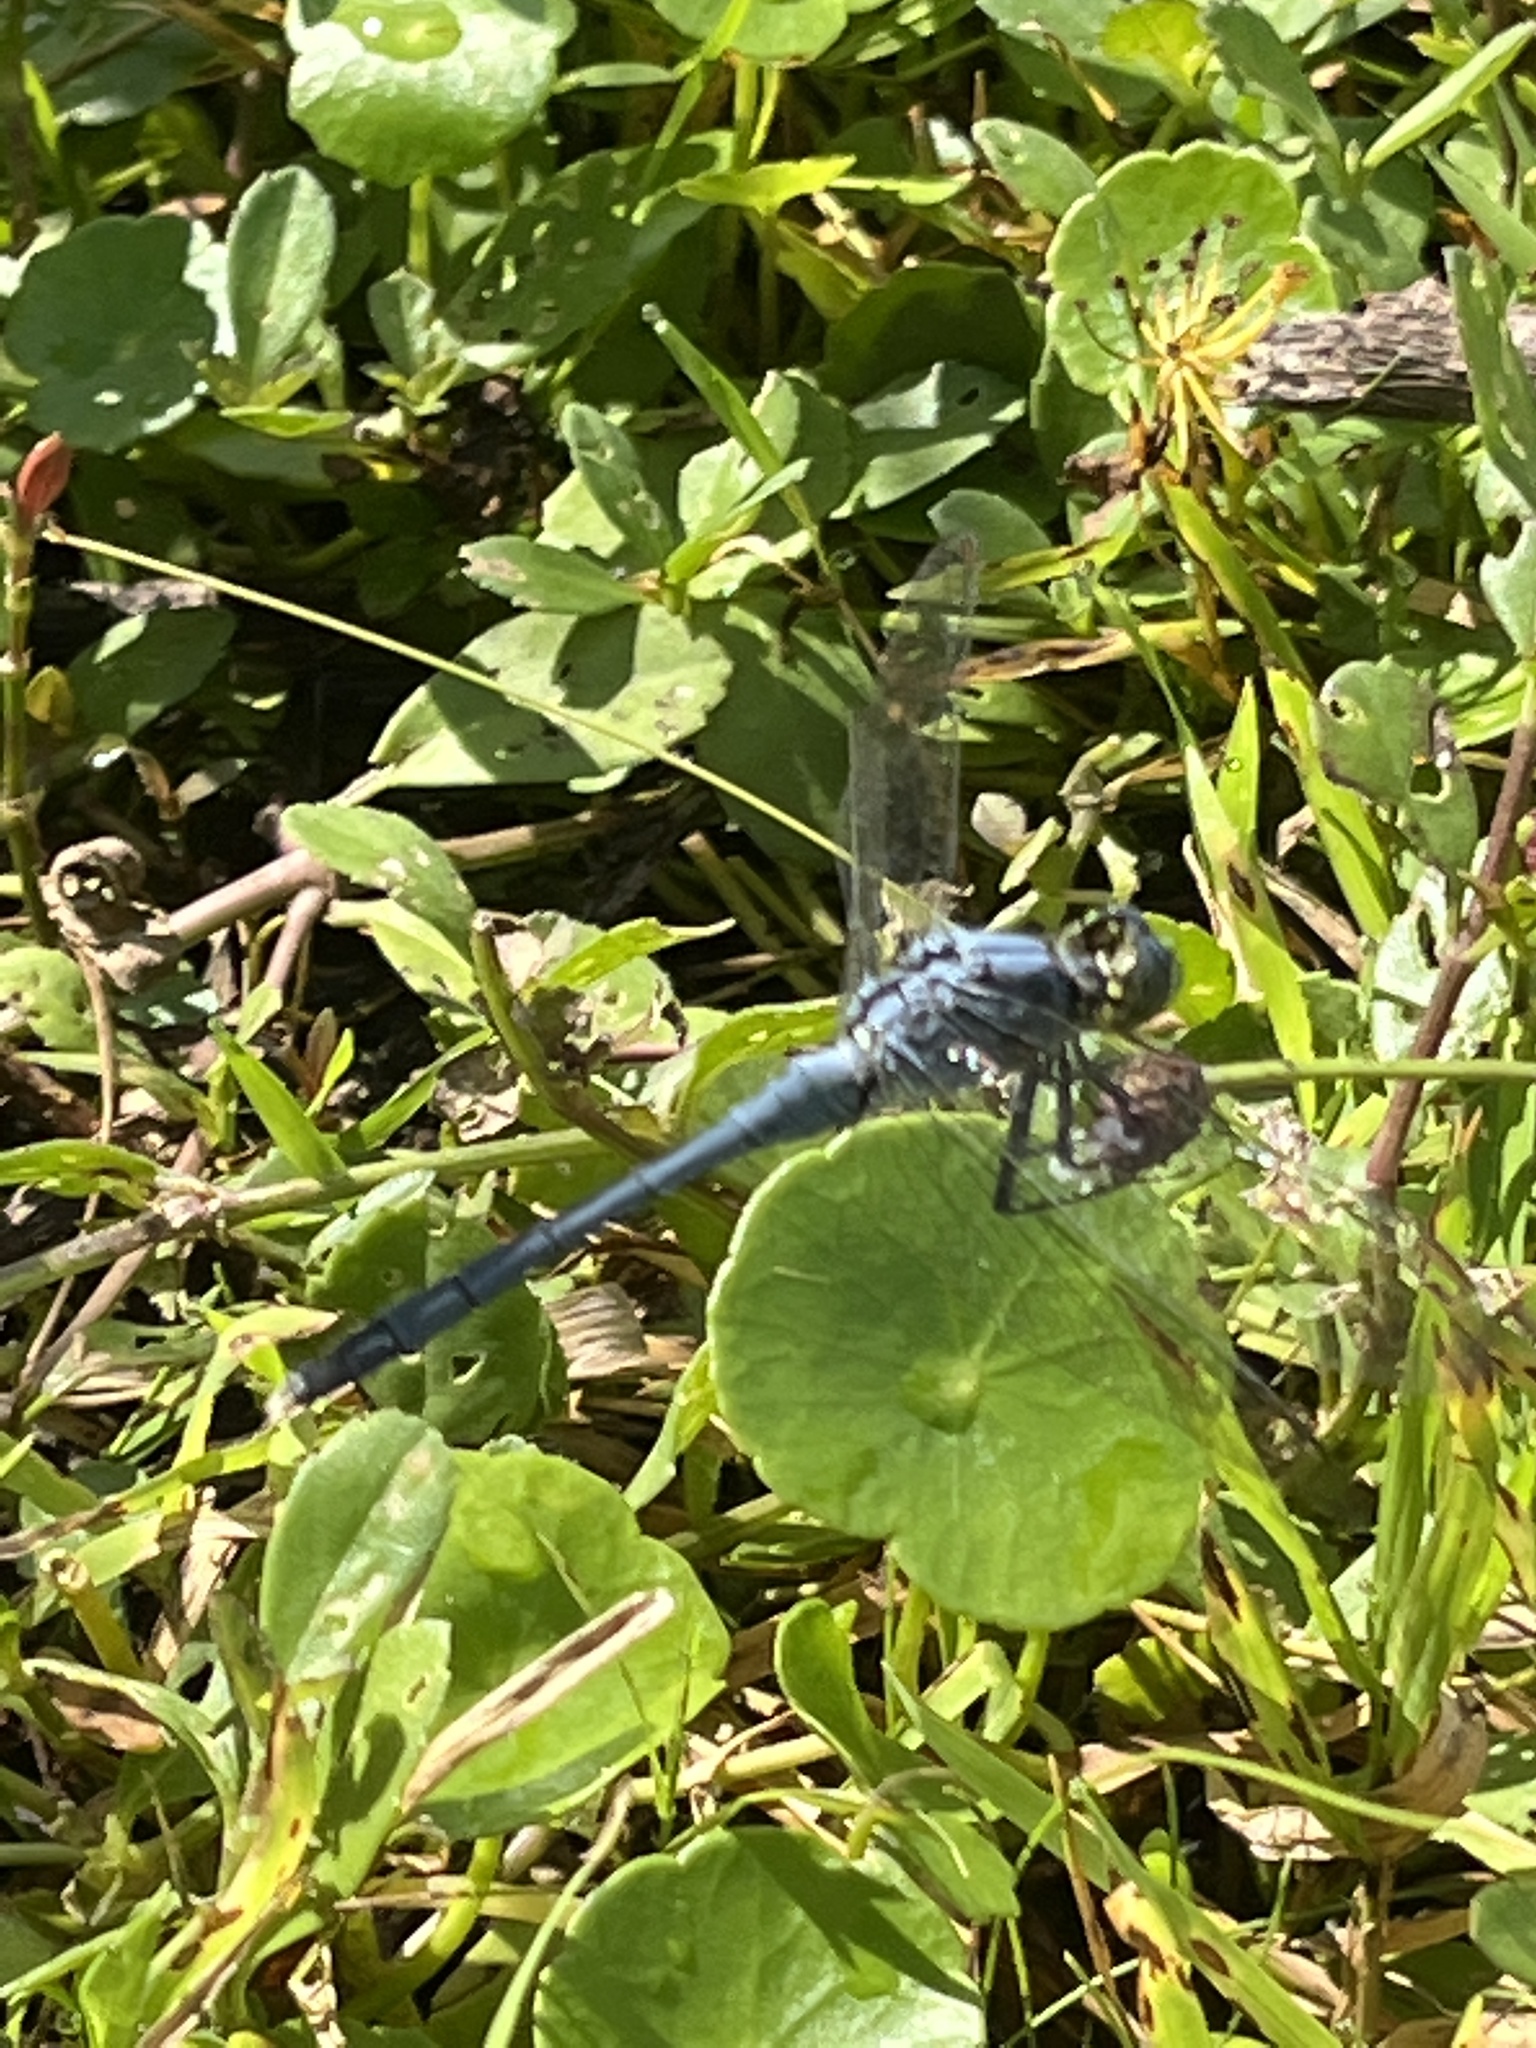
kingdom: Animalia
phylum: Arthropoda
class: Insecta
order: Odonata
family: Libellulidae
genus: Erythemis
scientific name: Erythemis simplicicollis
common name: Eastern pondhawk
